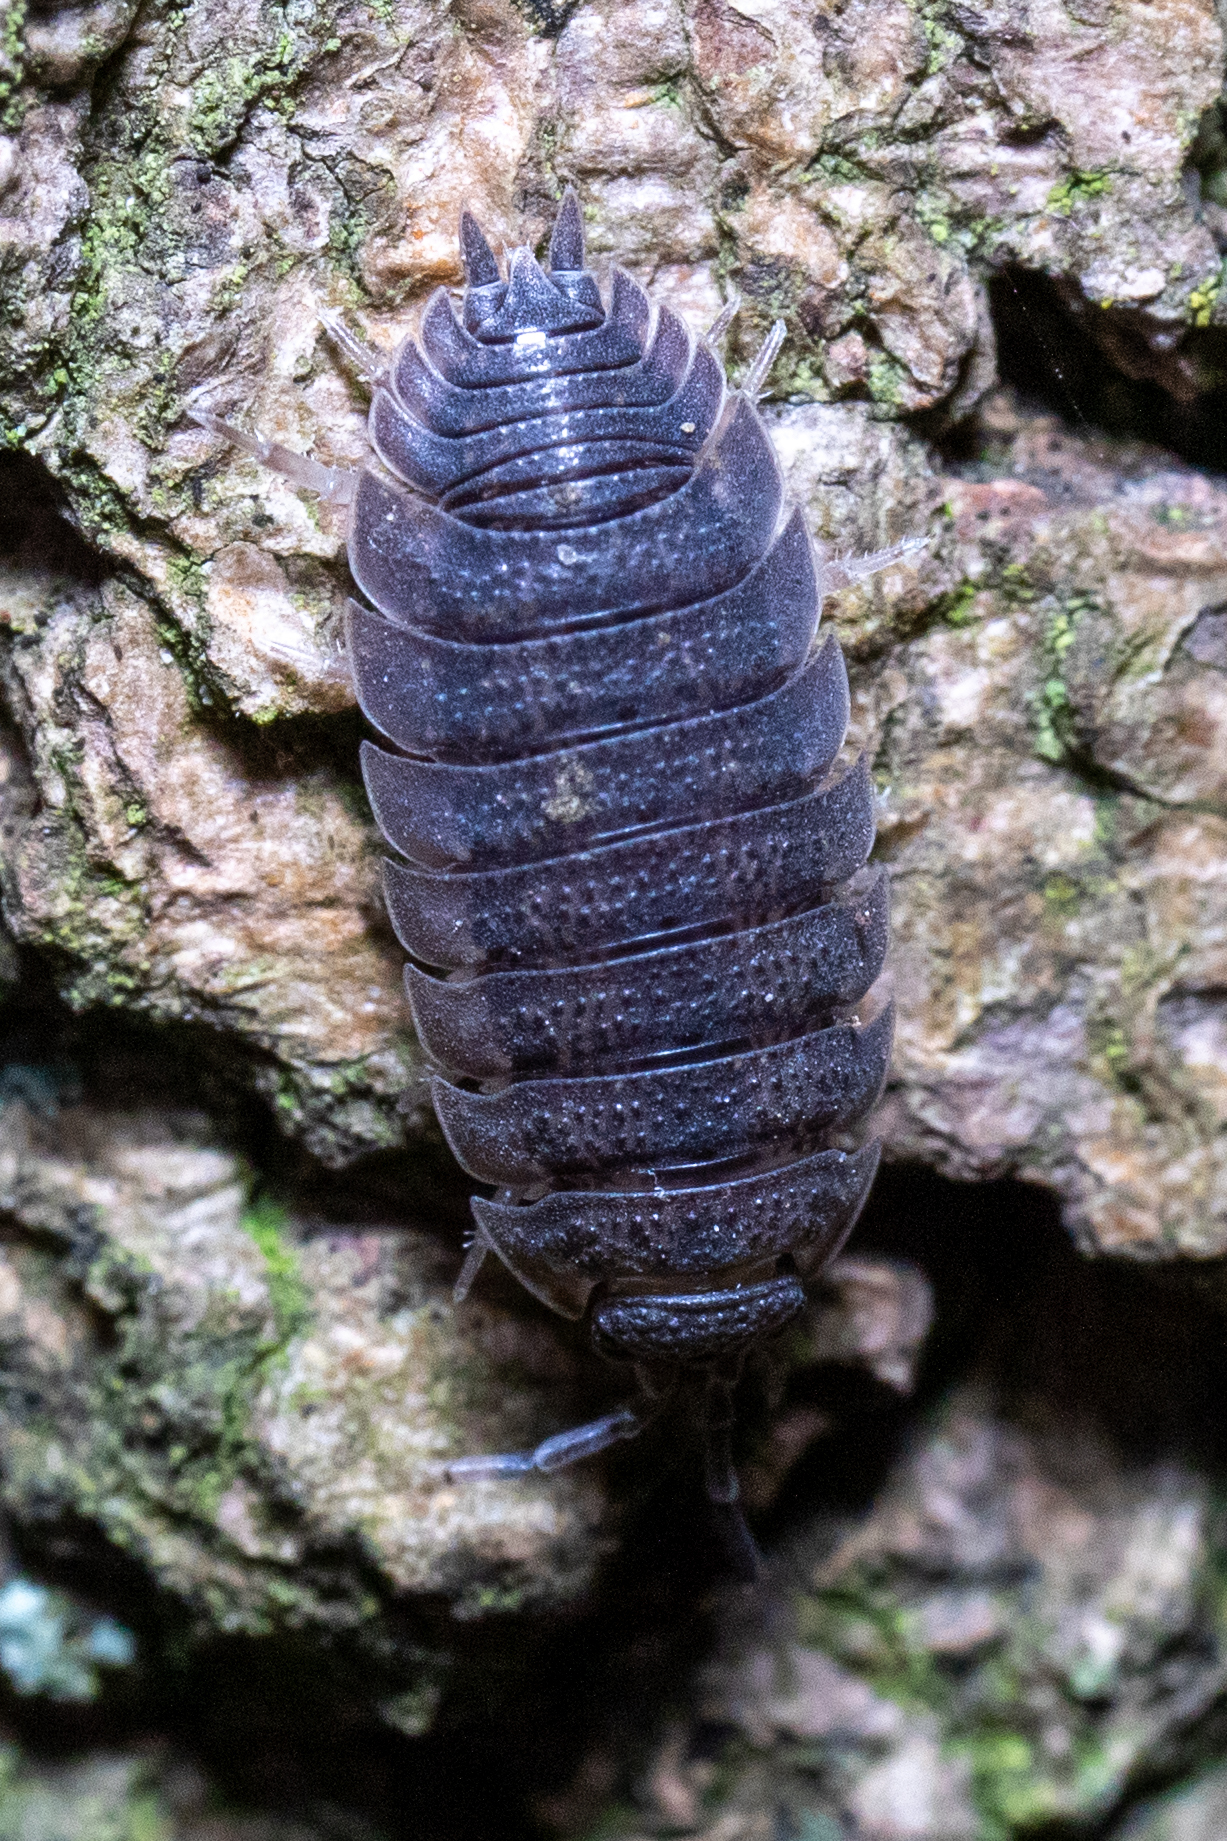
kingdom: Animalia
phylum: Arthropoda
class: Malacostraca
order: Isopoda
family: Porcellionidae
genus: Porcellio
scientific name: Porcellio scaber
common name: Common rough woodlouse
